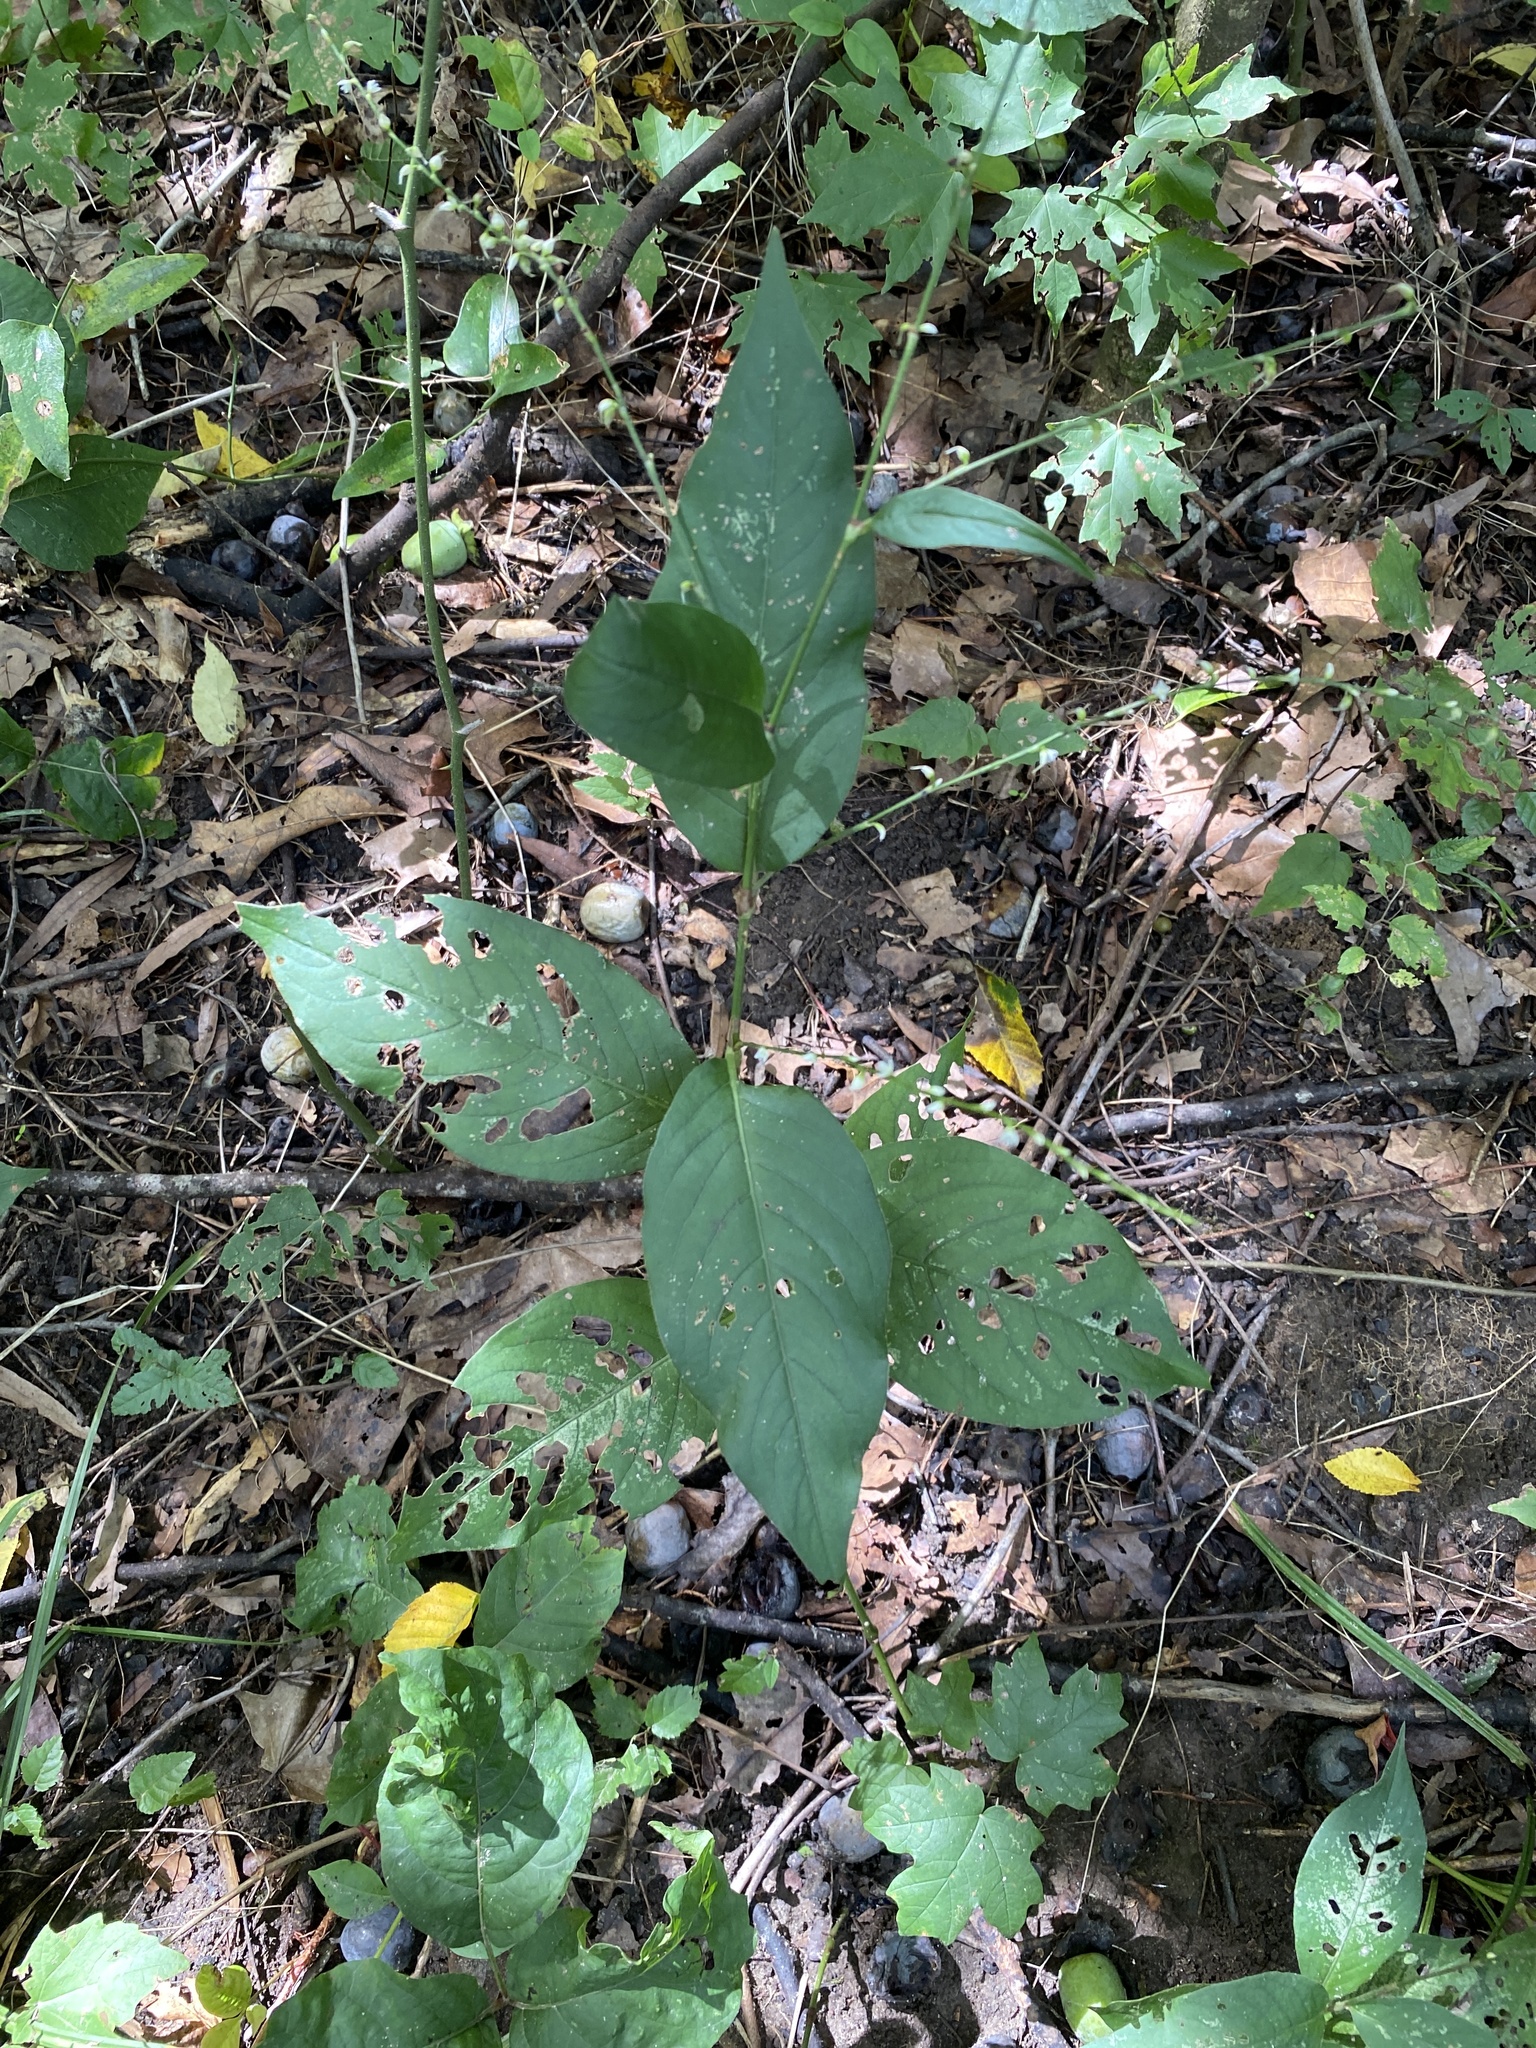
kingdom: Plantae
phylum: Tracheophyta
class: Magnoliopsida
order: Caryophyllales
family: Polygonaceae
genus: Persicaria
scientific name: Persicaria virginiana
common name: Jumpseed
